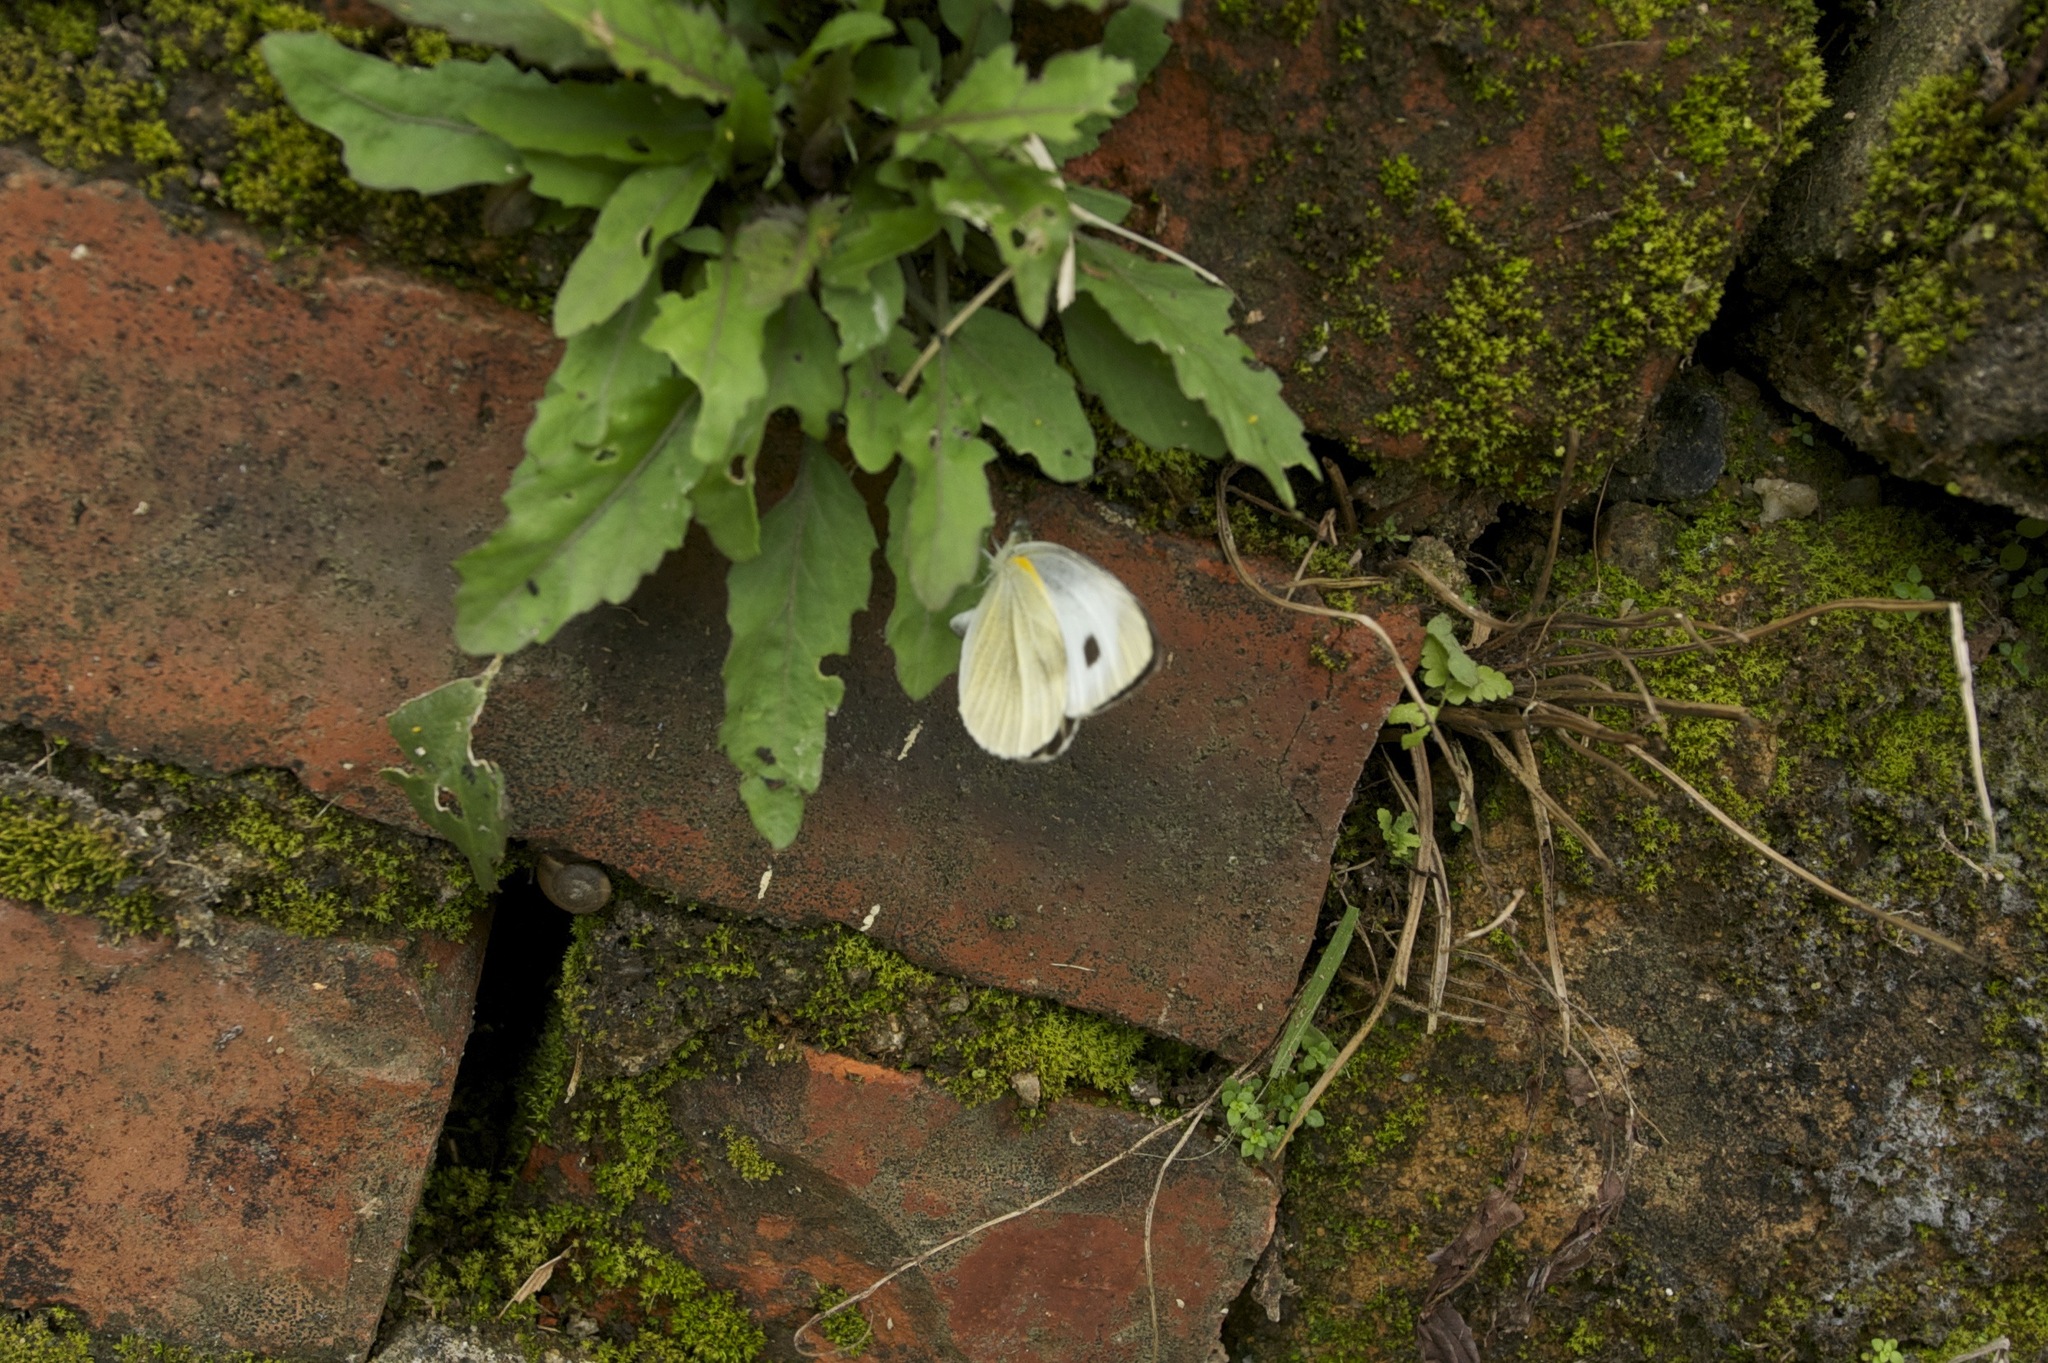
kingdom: Animalia
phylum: Arthropoda
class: Insecta
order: Lepidoptera
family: Pieridae
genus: Pieris
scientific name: Pieris canidia
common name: Indian cabbage white
